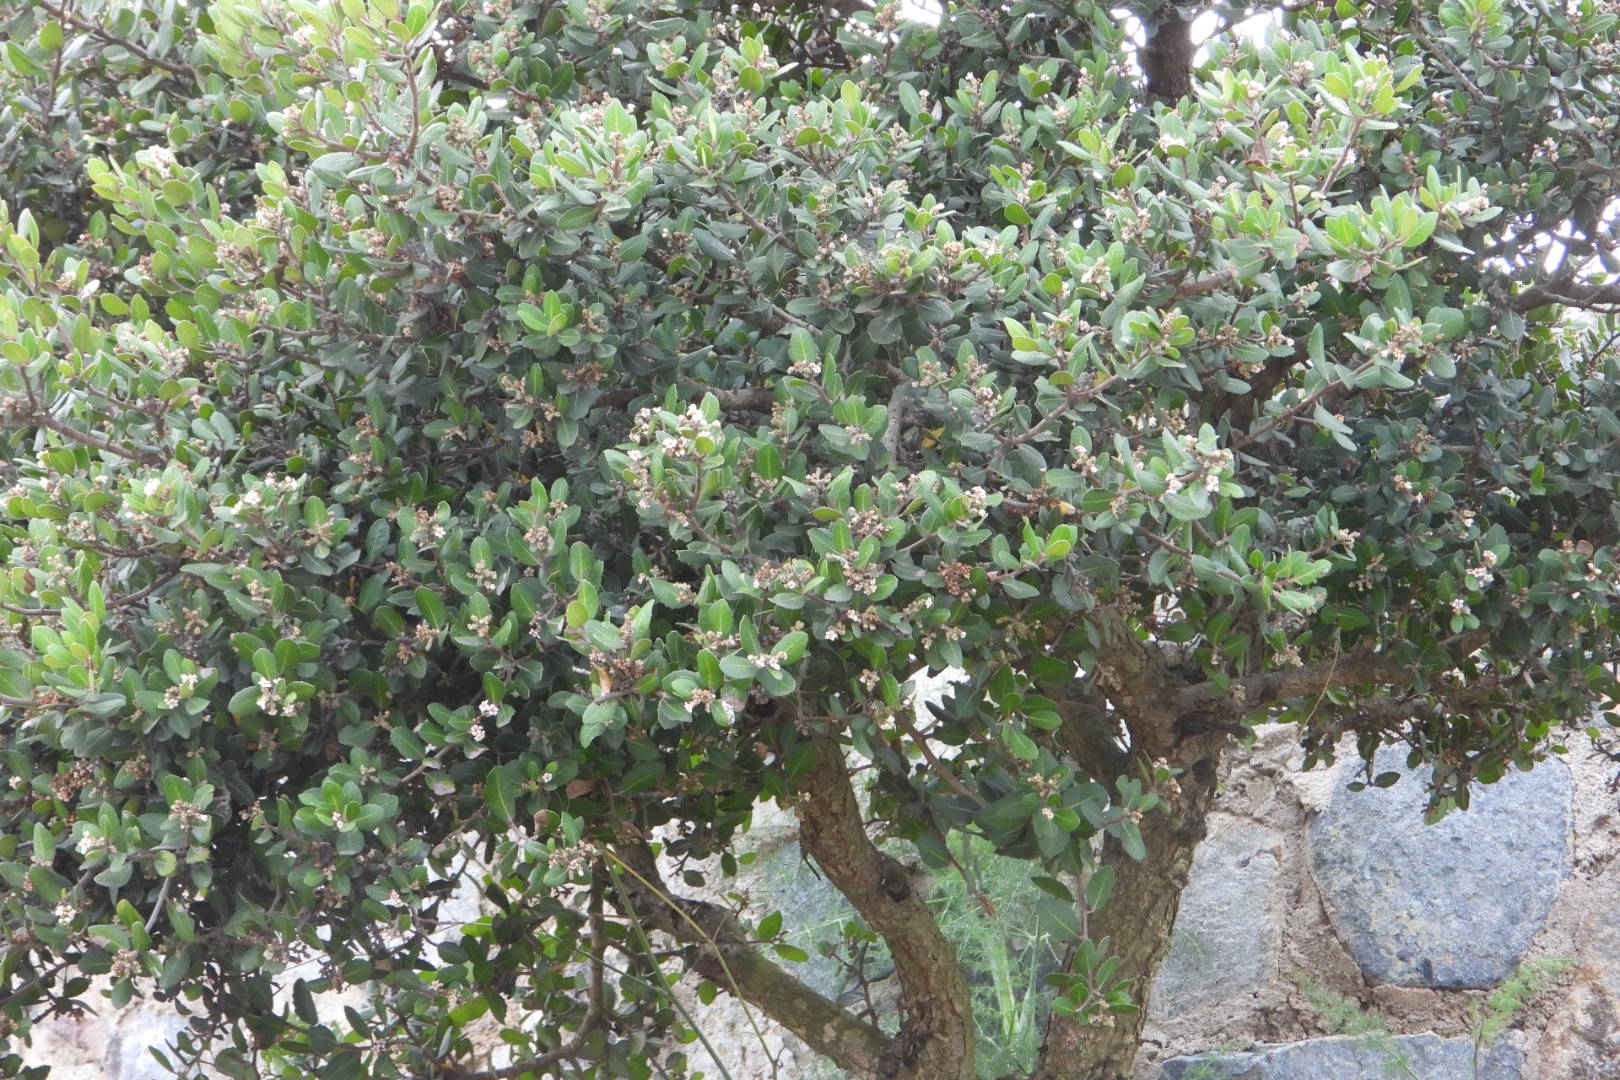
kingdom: Plantae
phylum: Tracheophyta
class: Magnoliopsida
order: Sapindales
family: Anacardiaceae
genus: Rhus
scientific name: Rhus integrifolia
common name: Lemonade sumac
